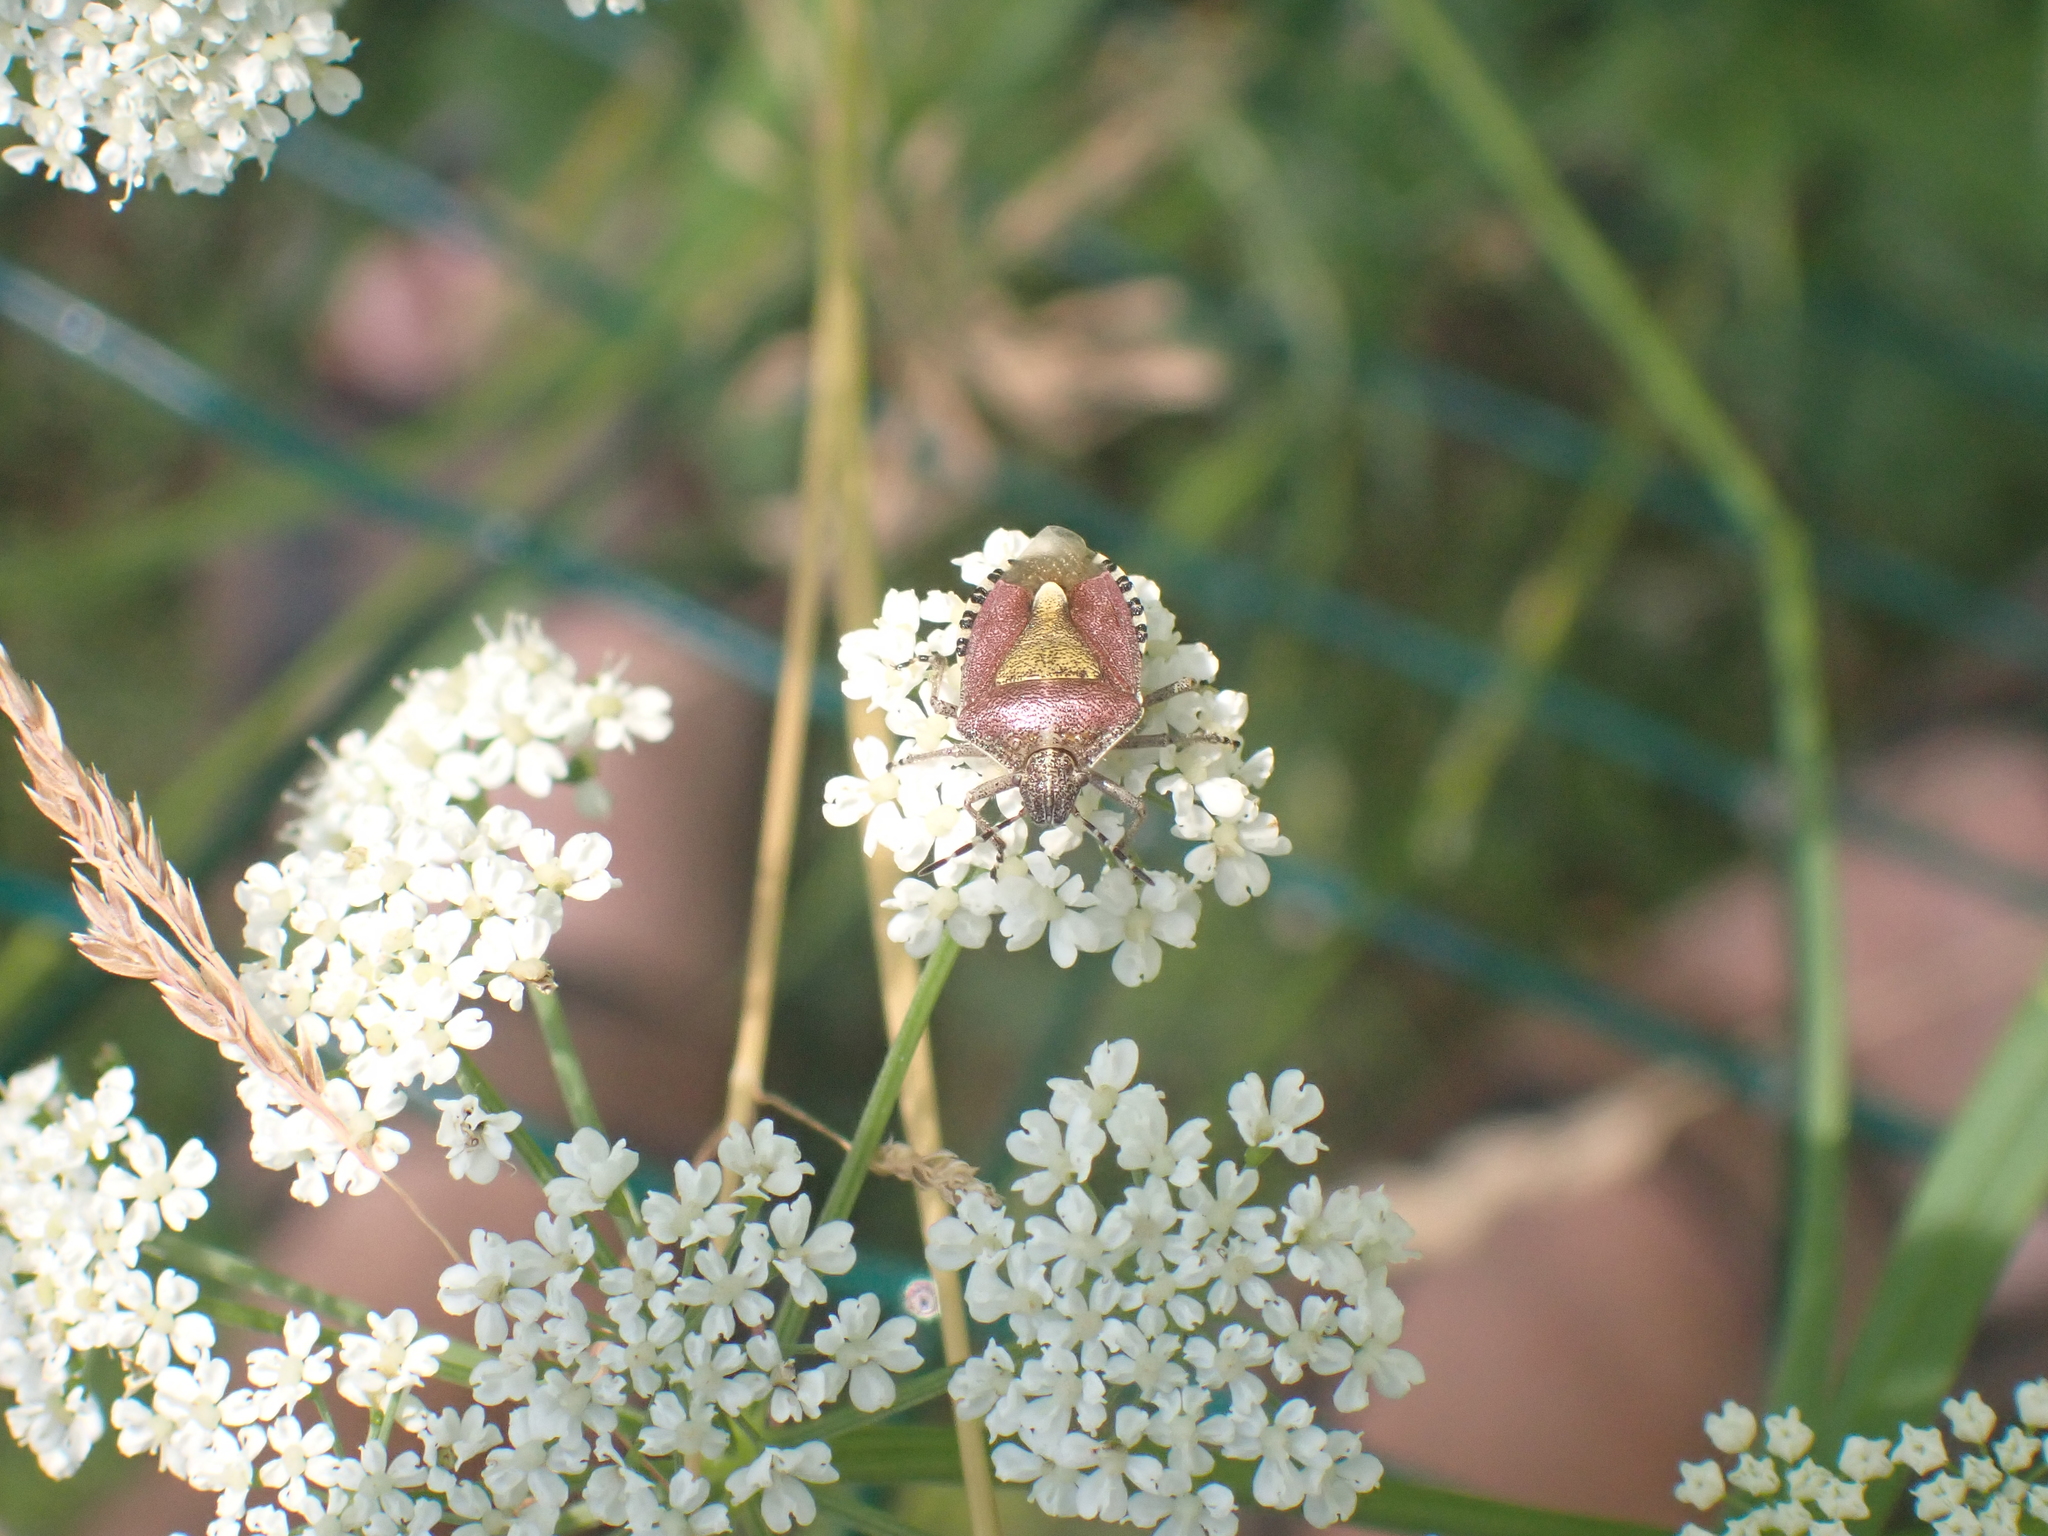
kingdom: Animalia
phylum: Arthropoda
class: Insecta
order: Hemiptera
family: Pentatomidae
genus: Dolycoris
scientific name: Dolycoris baccarum
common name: Sloe bug
